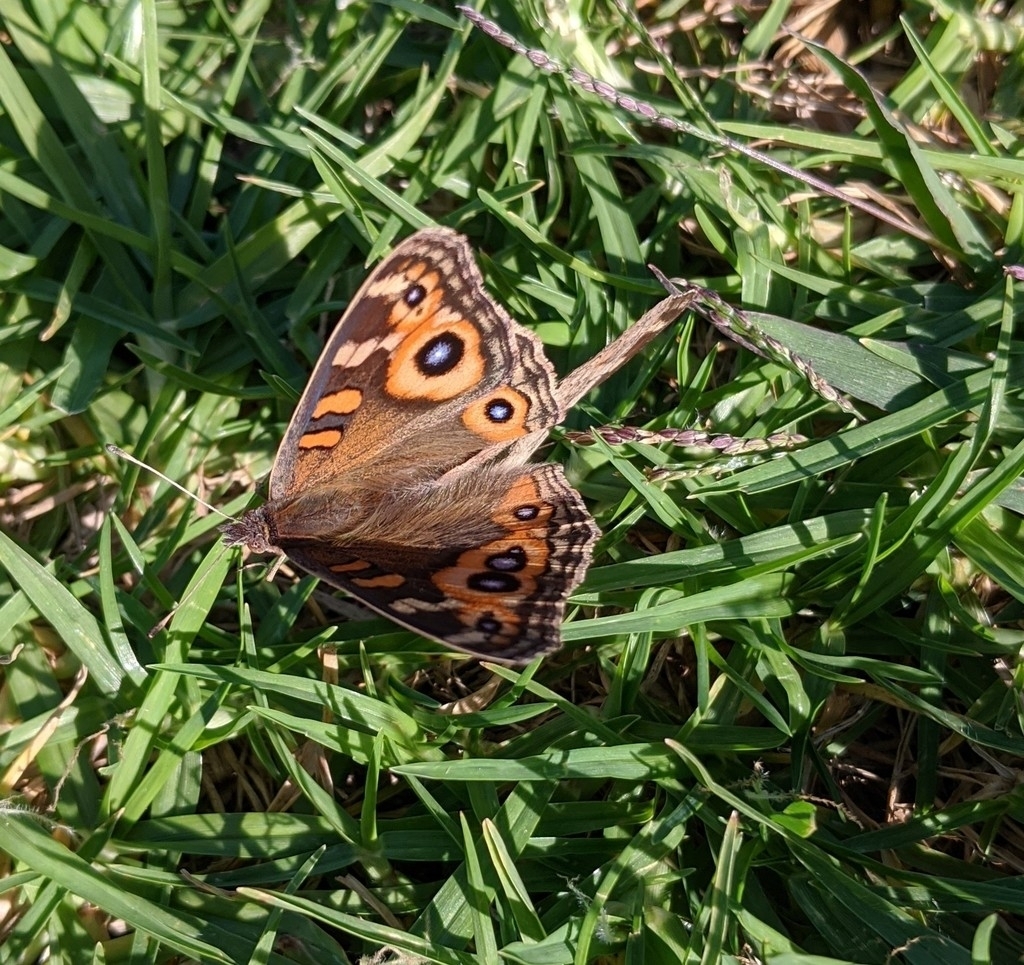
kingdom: Animalia
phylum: Arthropoda
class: Insecta
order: Lepidoptera
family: Nymphalidae
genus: Junonia
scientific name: Junonia villida
